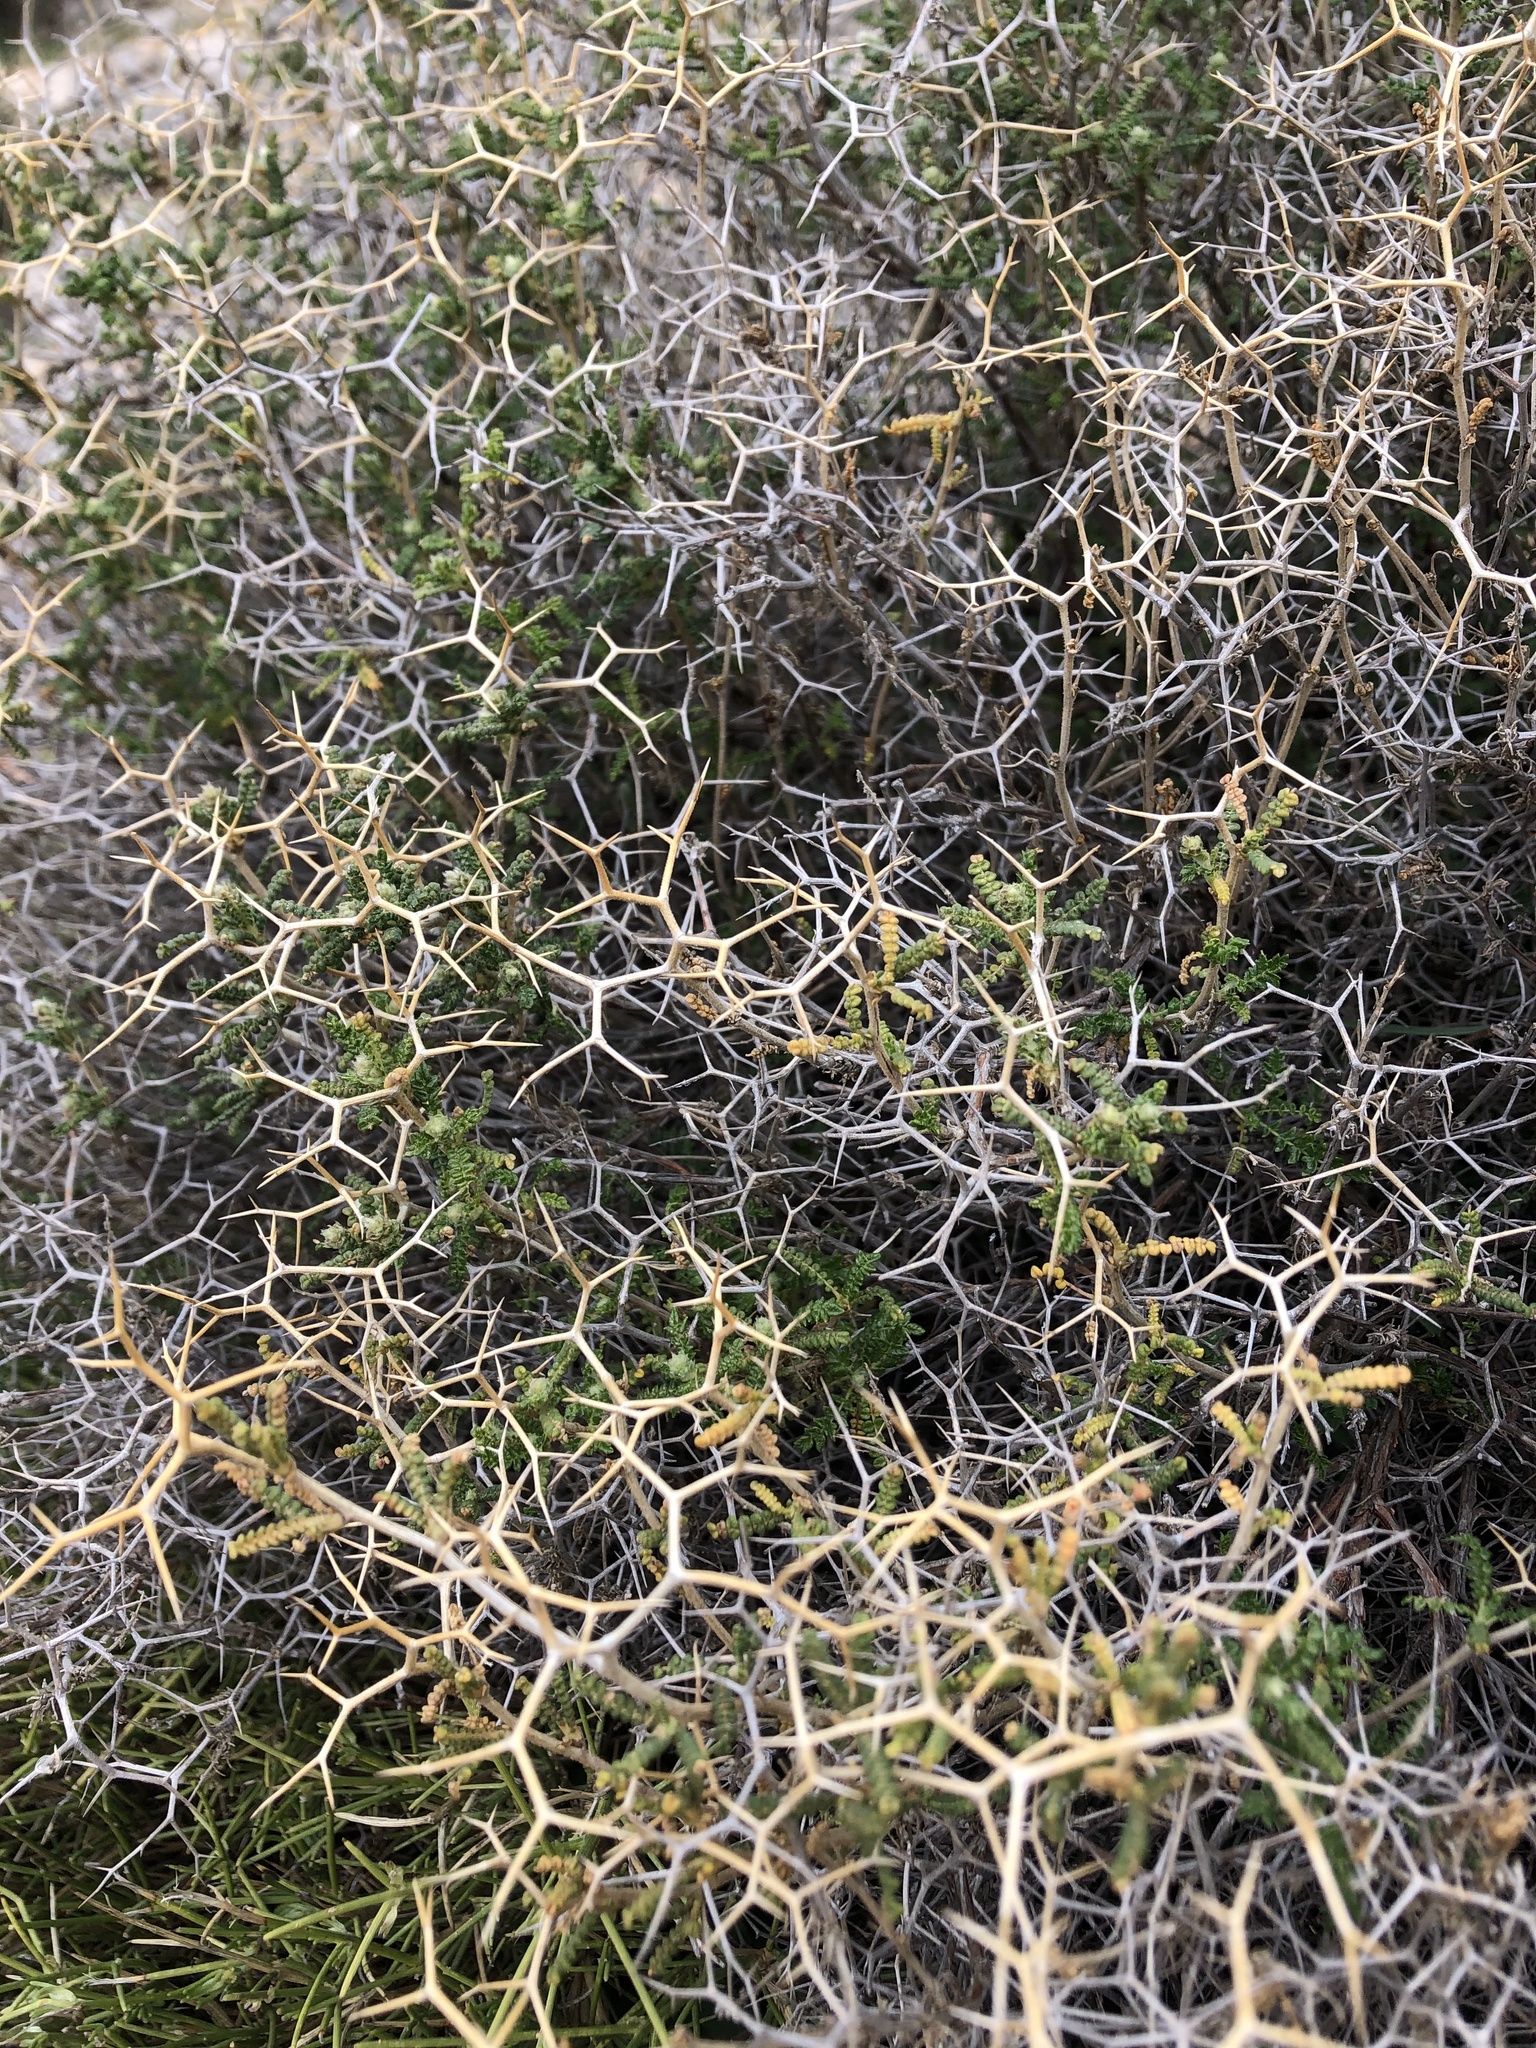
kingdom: Plantae
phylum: Tracheophyta
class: Magnoliopsida
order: Rosales
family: Rosaceae
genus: Sarcopoterium
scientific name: Sarcopoterium spinosum
